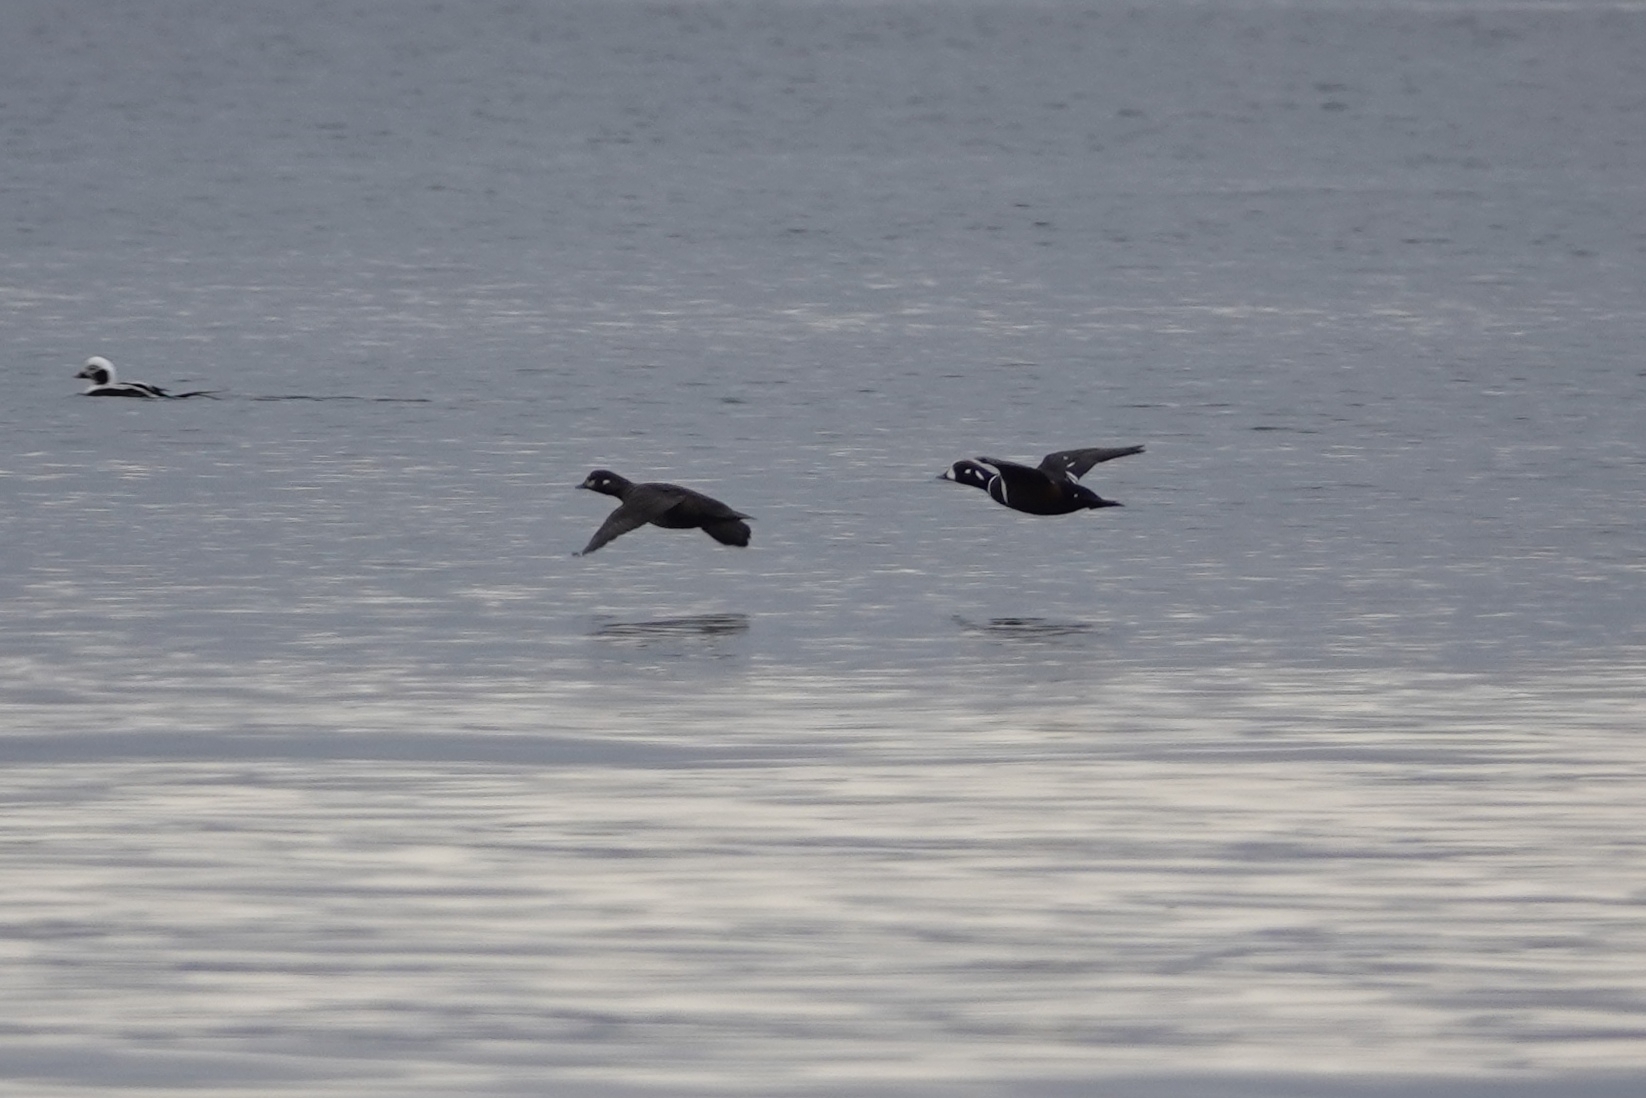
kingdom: Animalia
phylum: Chordata
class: Aves
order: Anseriformes
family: Anatidae
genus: Histrionicus
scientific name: Histrionicus histrionicus
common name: Harlequin duck
